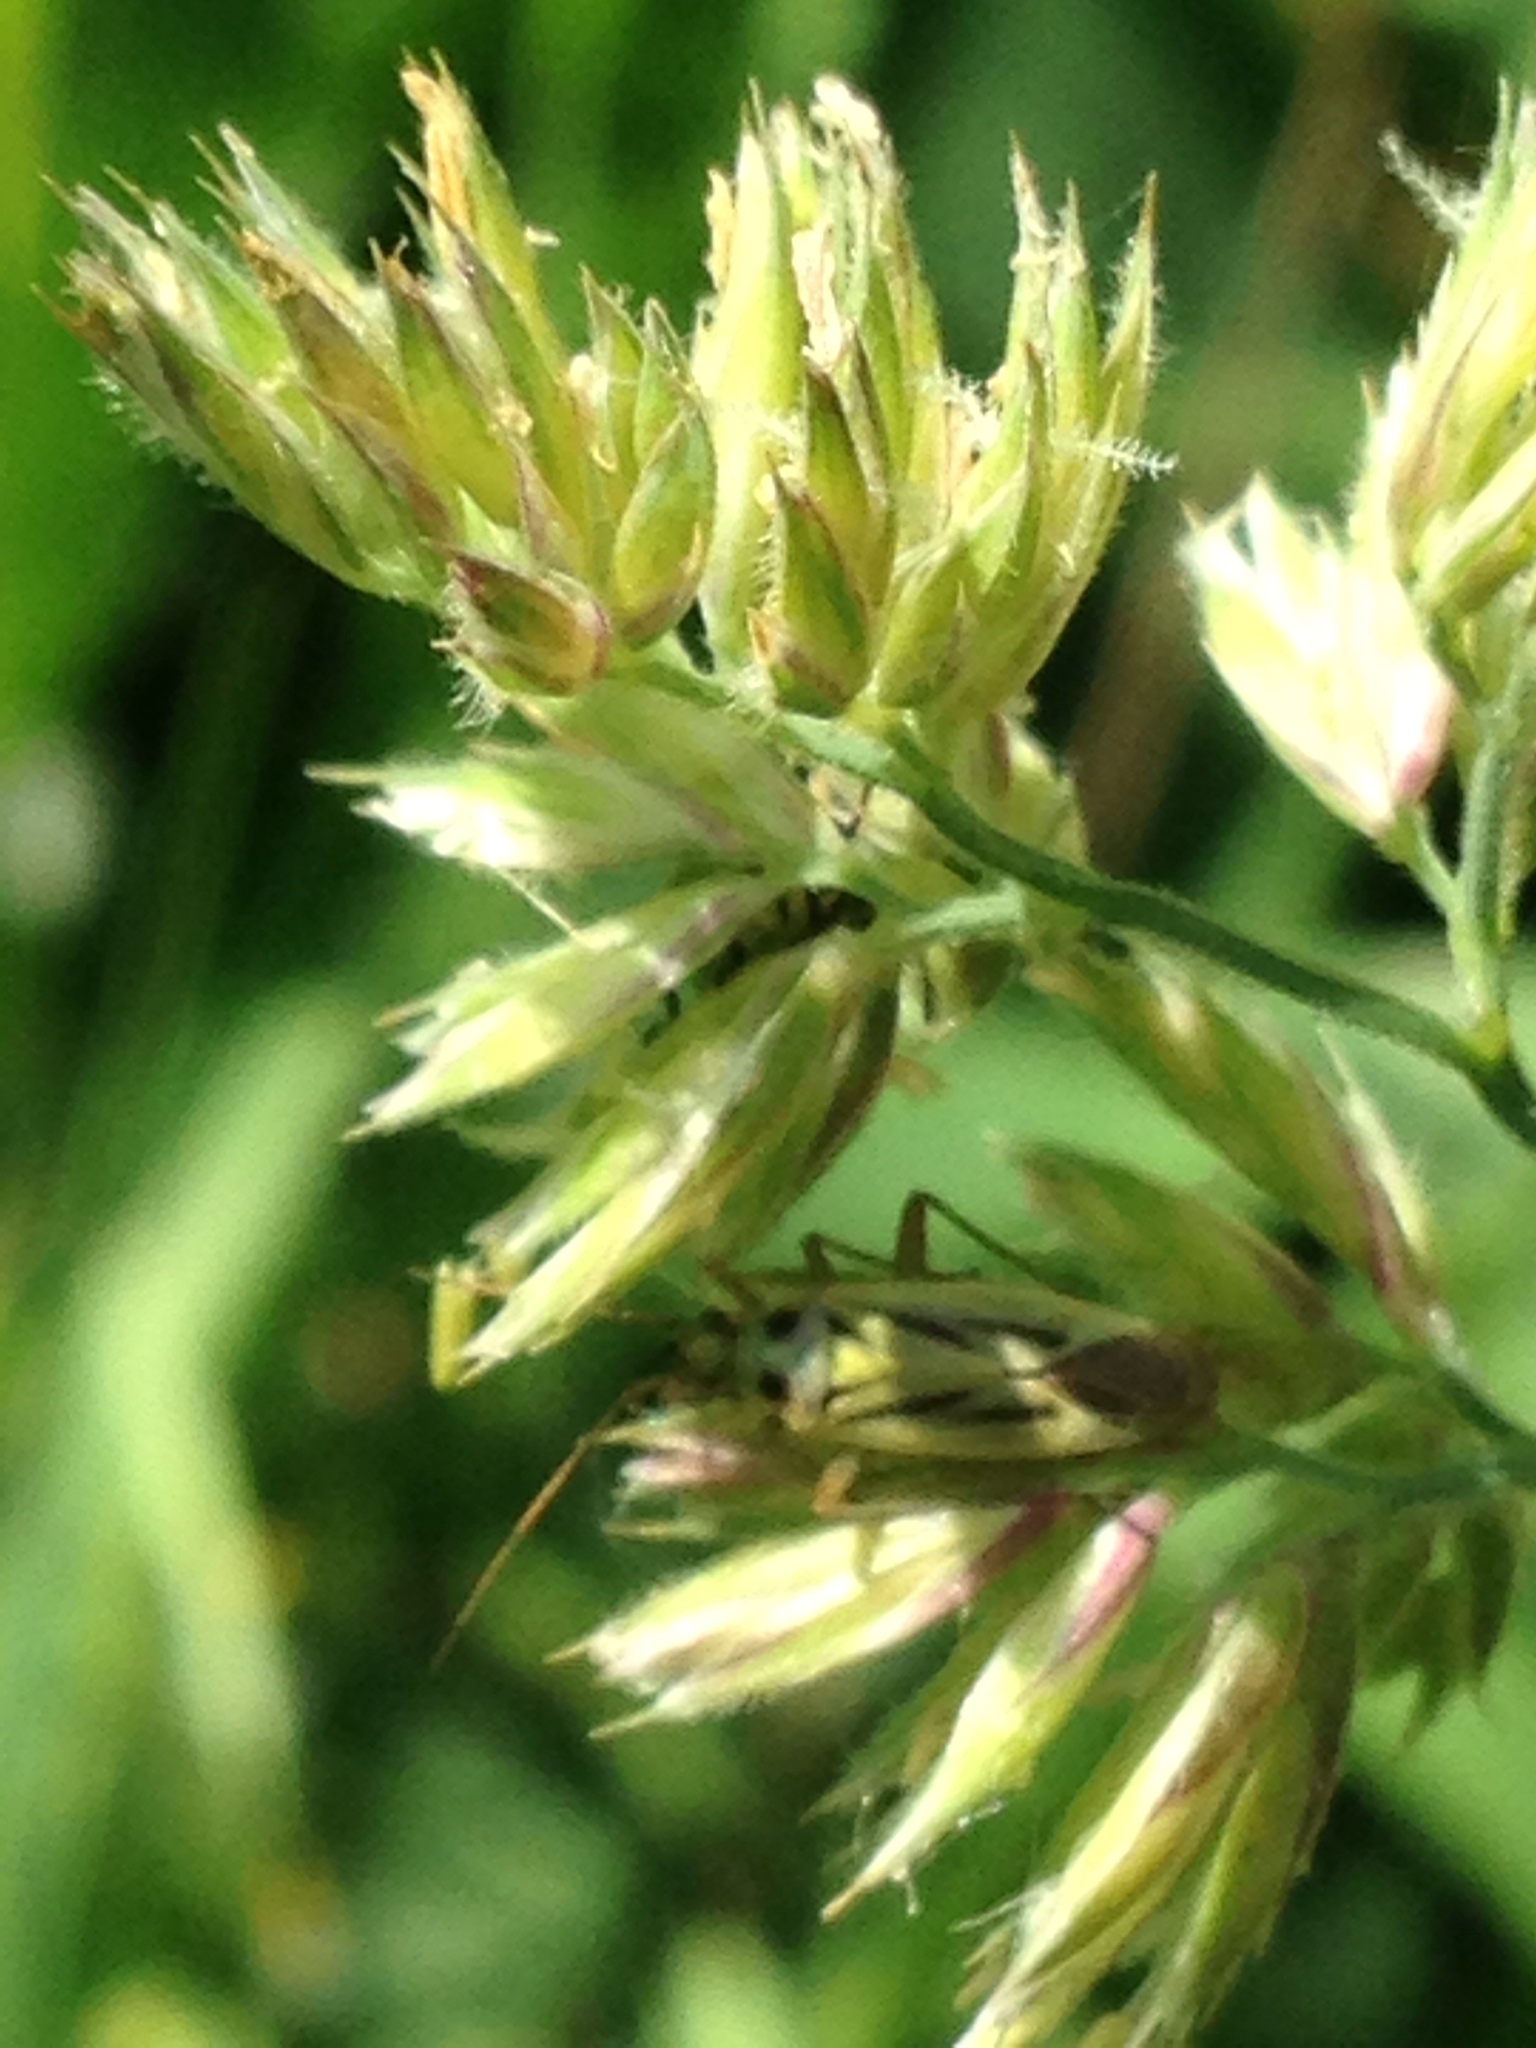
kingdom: Animalia
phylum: Arthropoda
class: Insecta
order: Hemiptera
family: Miridae
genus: Stenotus
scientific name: Stenotus binotatus
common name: Plant bug
